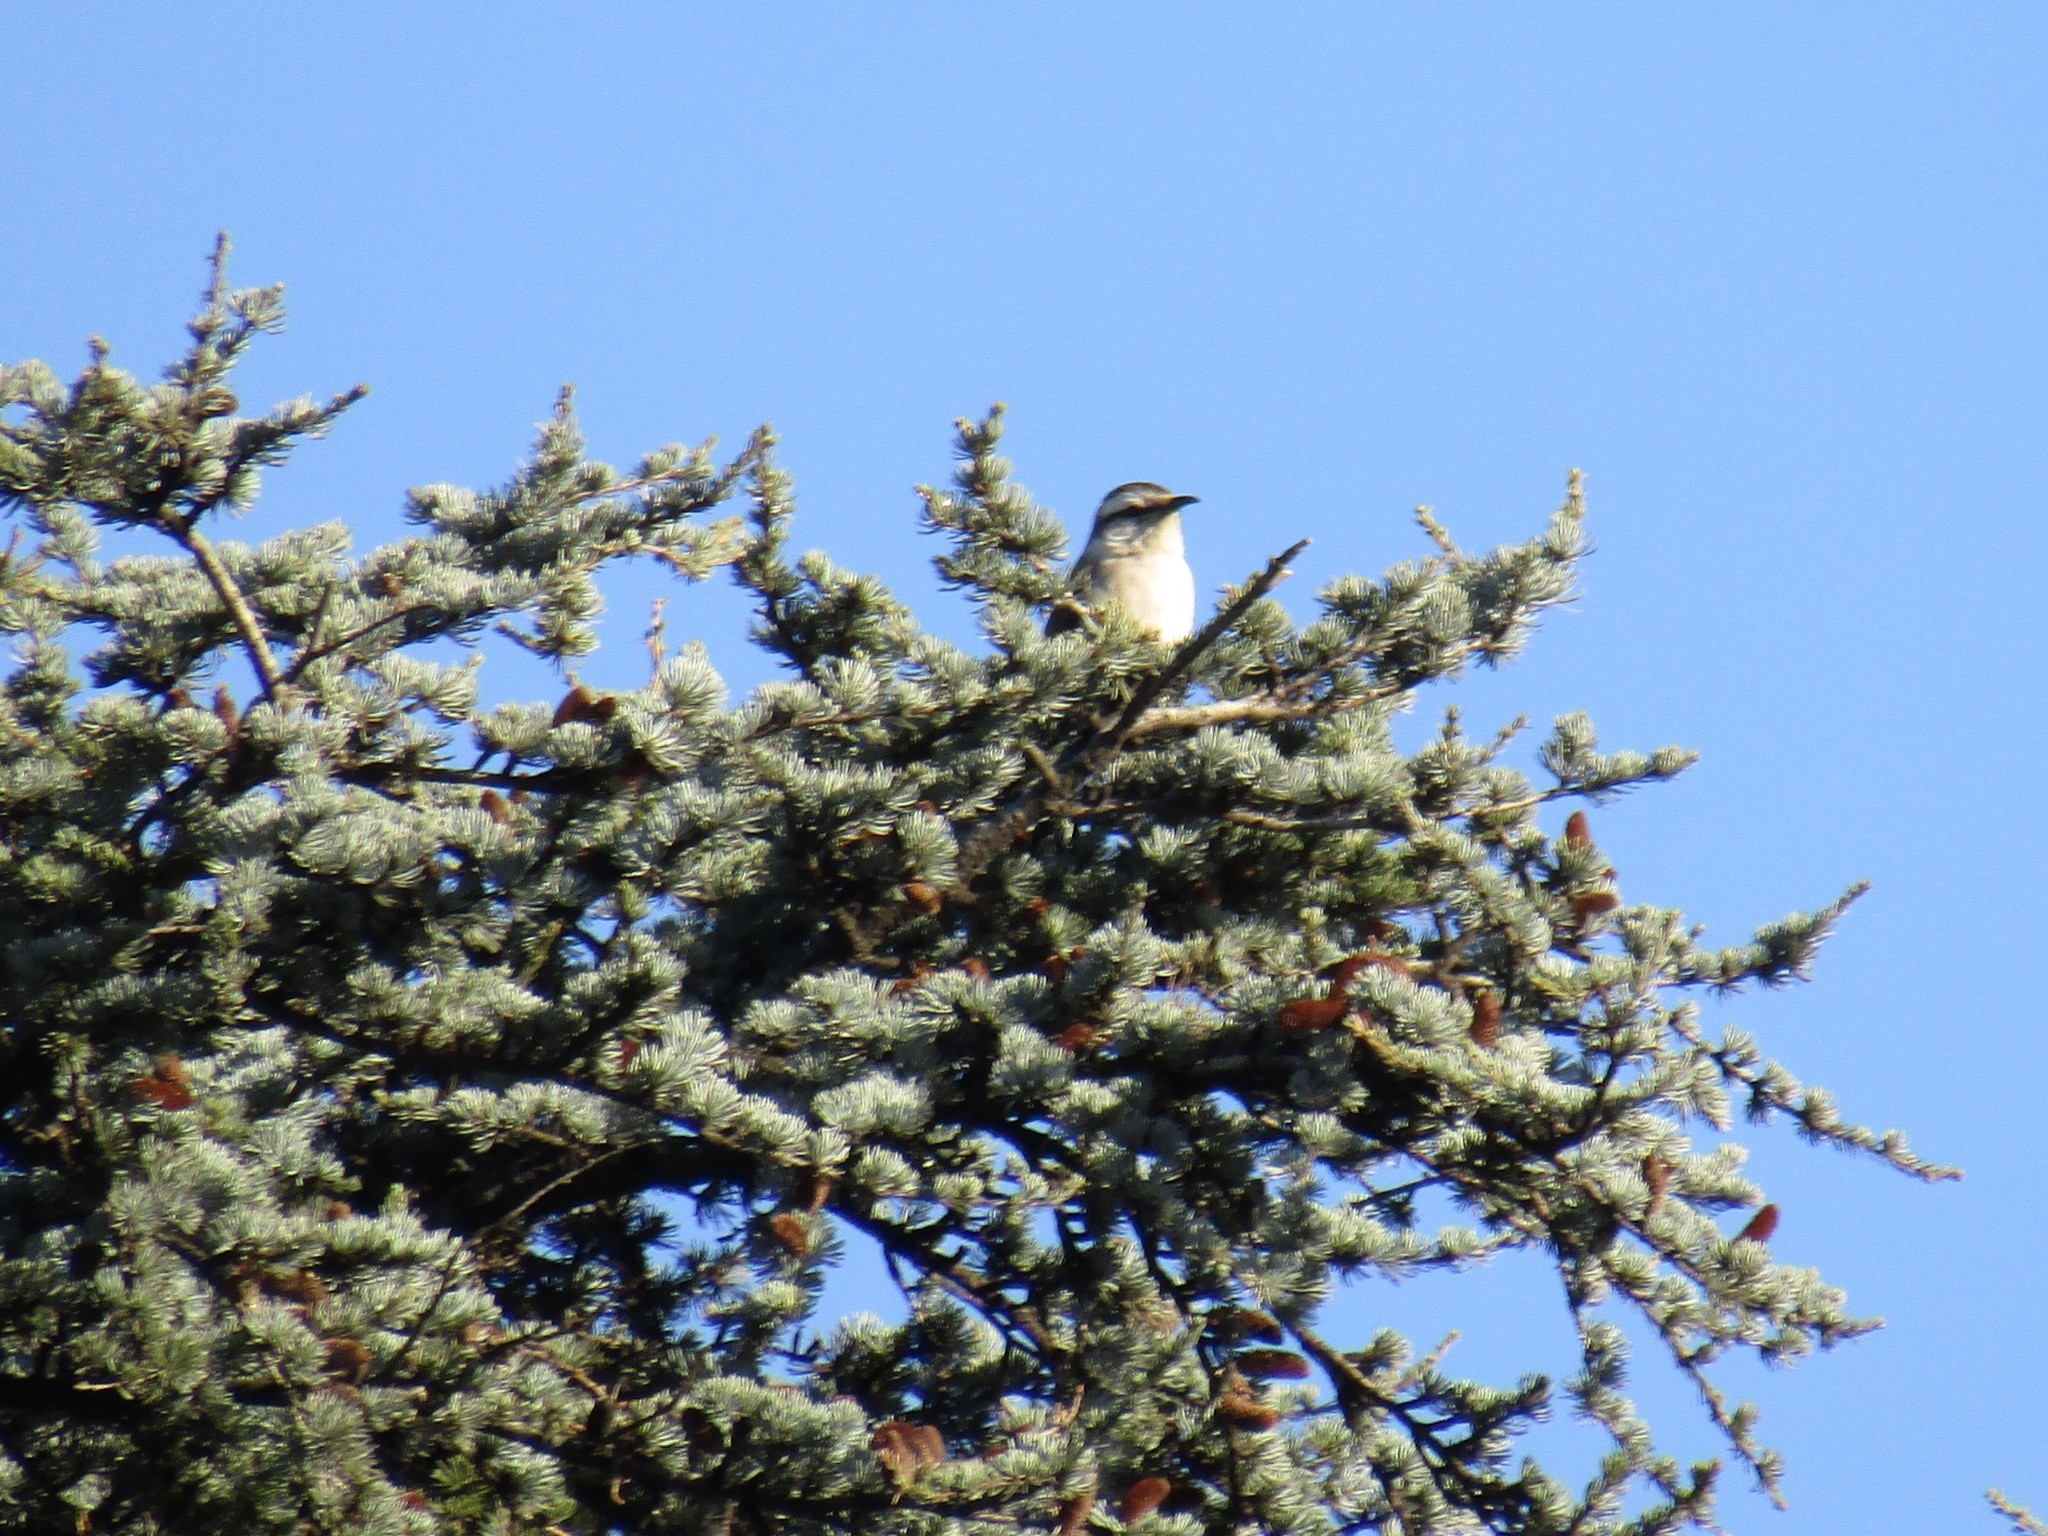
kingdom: Animalia
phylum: Chordata
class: Aves
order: Passeriformes
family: Mimidae
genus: Mimus
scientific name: Mimus saturninus
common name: Chalk-browed mockingbird
